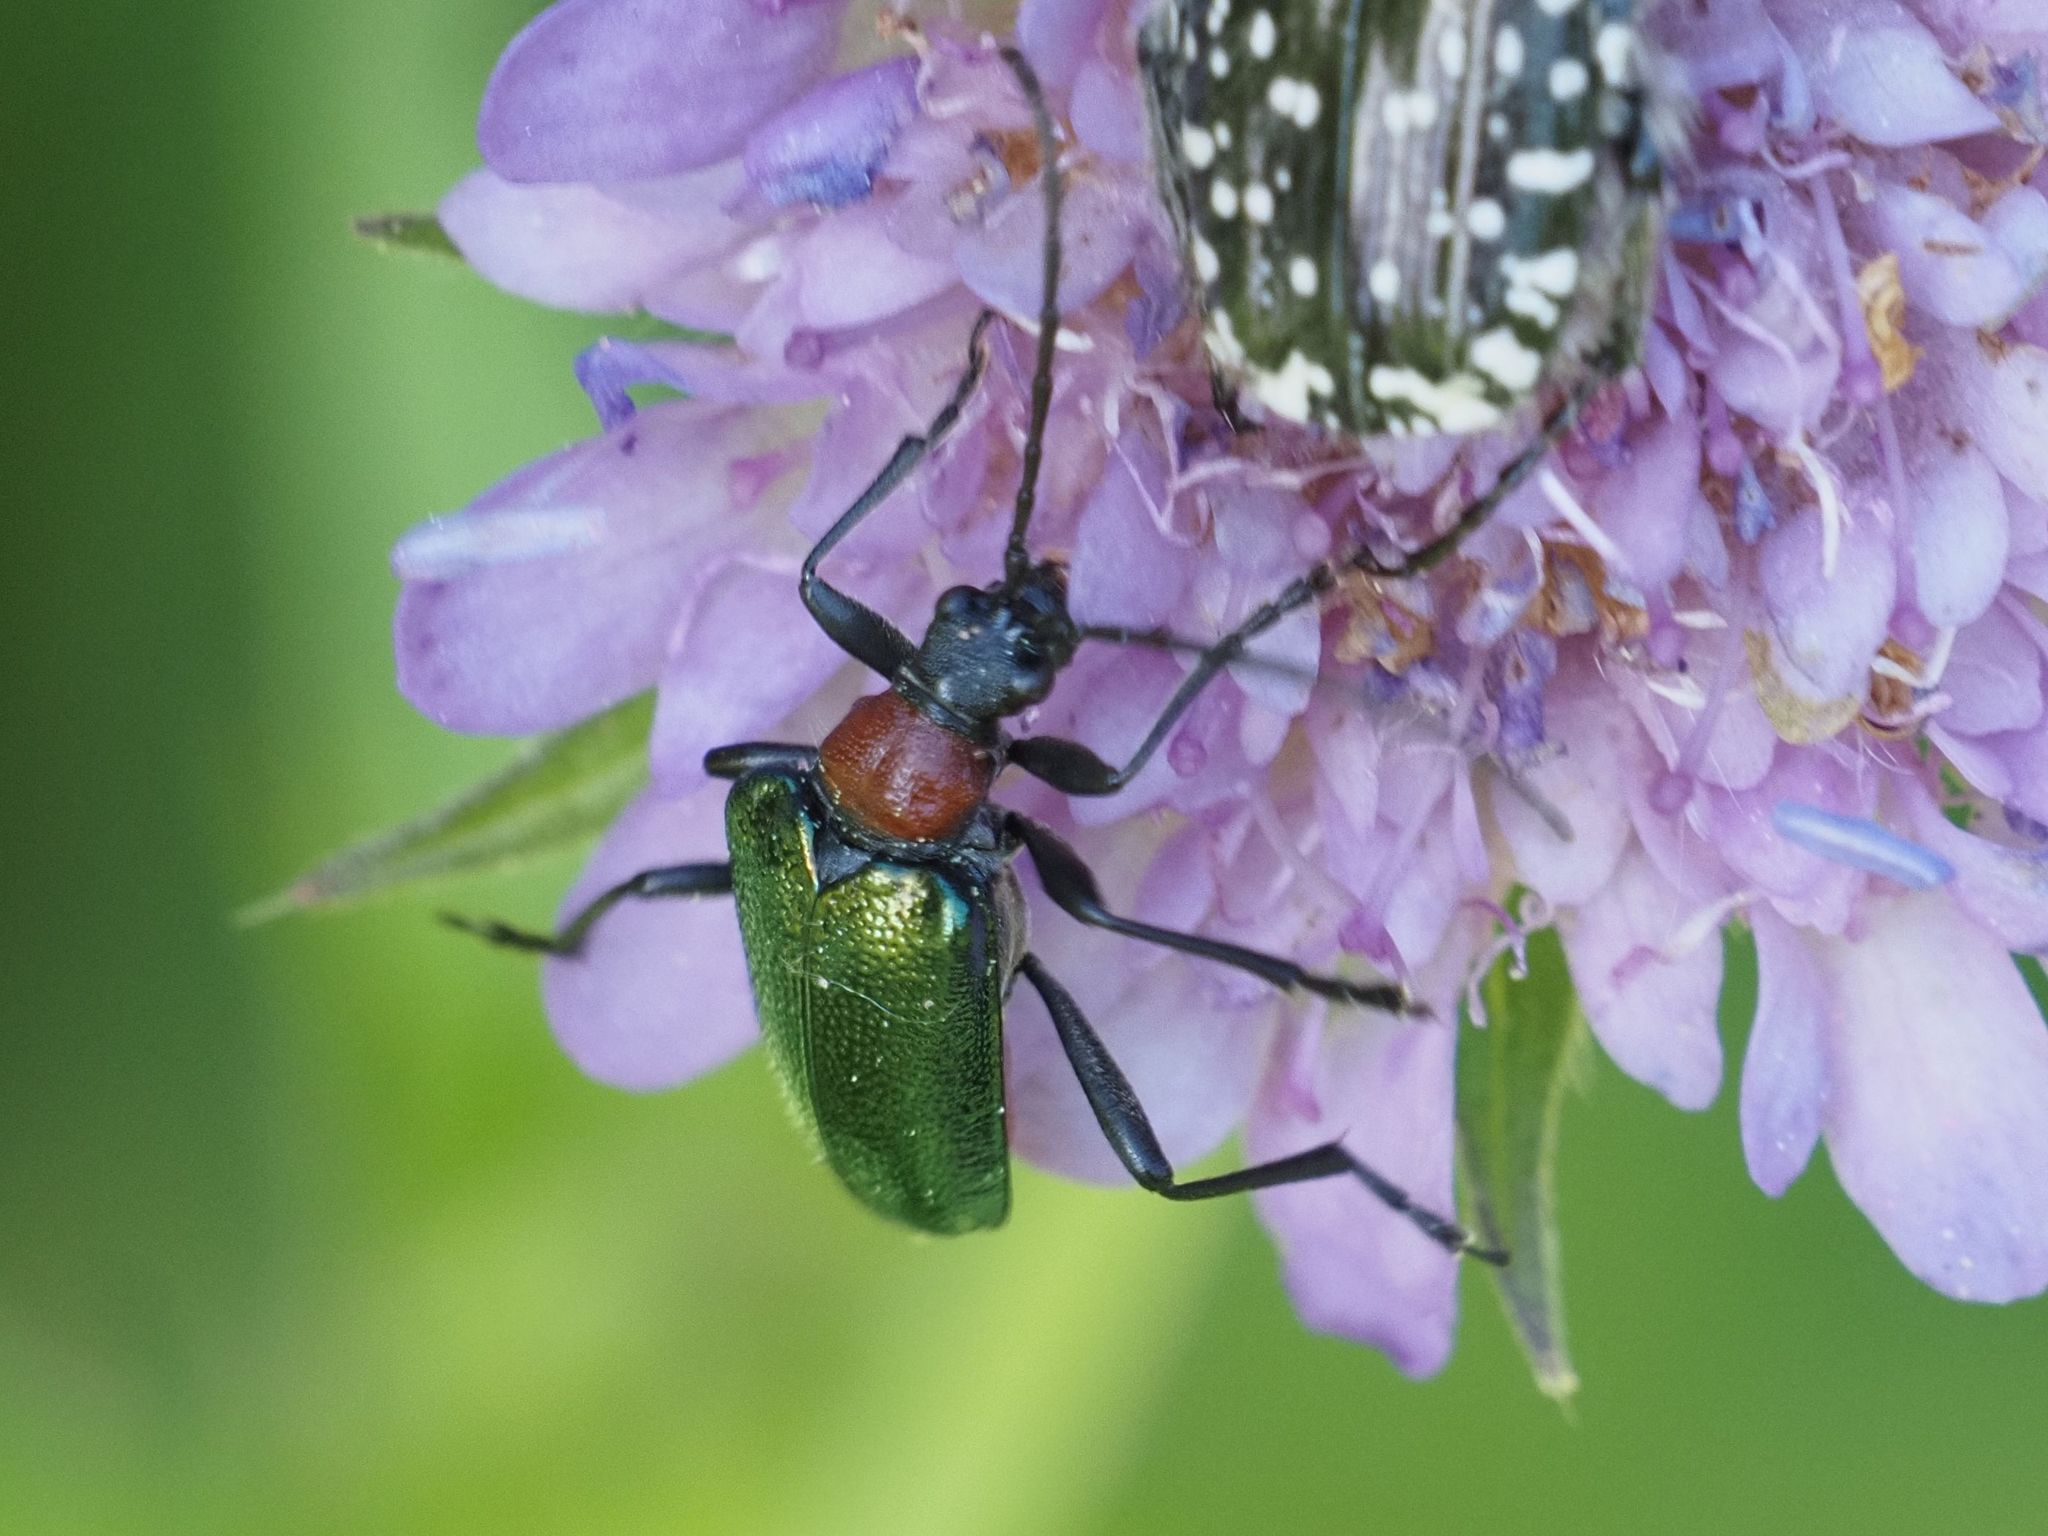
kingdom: Animalia
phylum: Arthropoda
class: Insecta
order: Coleoptera
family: Cerambycidae
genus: Gaurotes
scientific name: Gaurotes virginea
